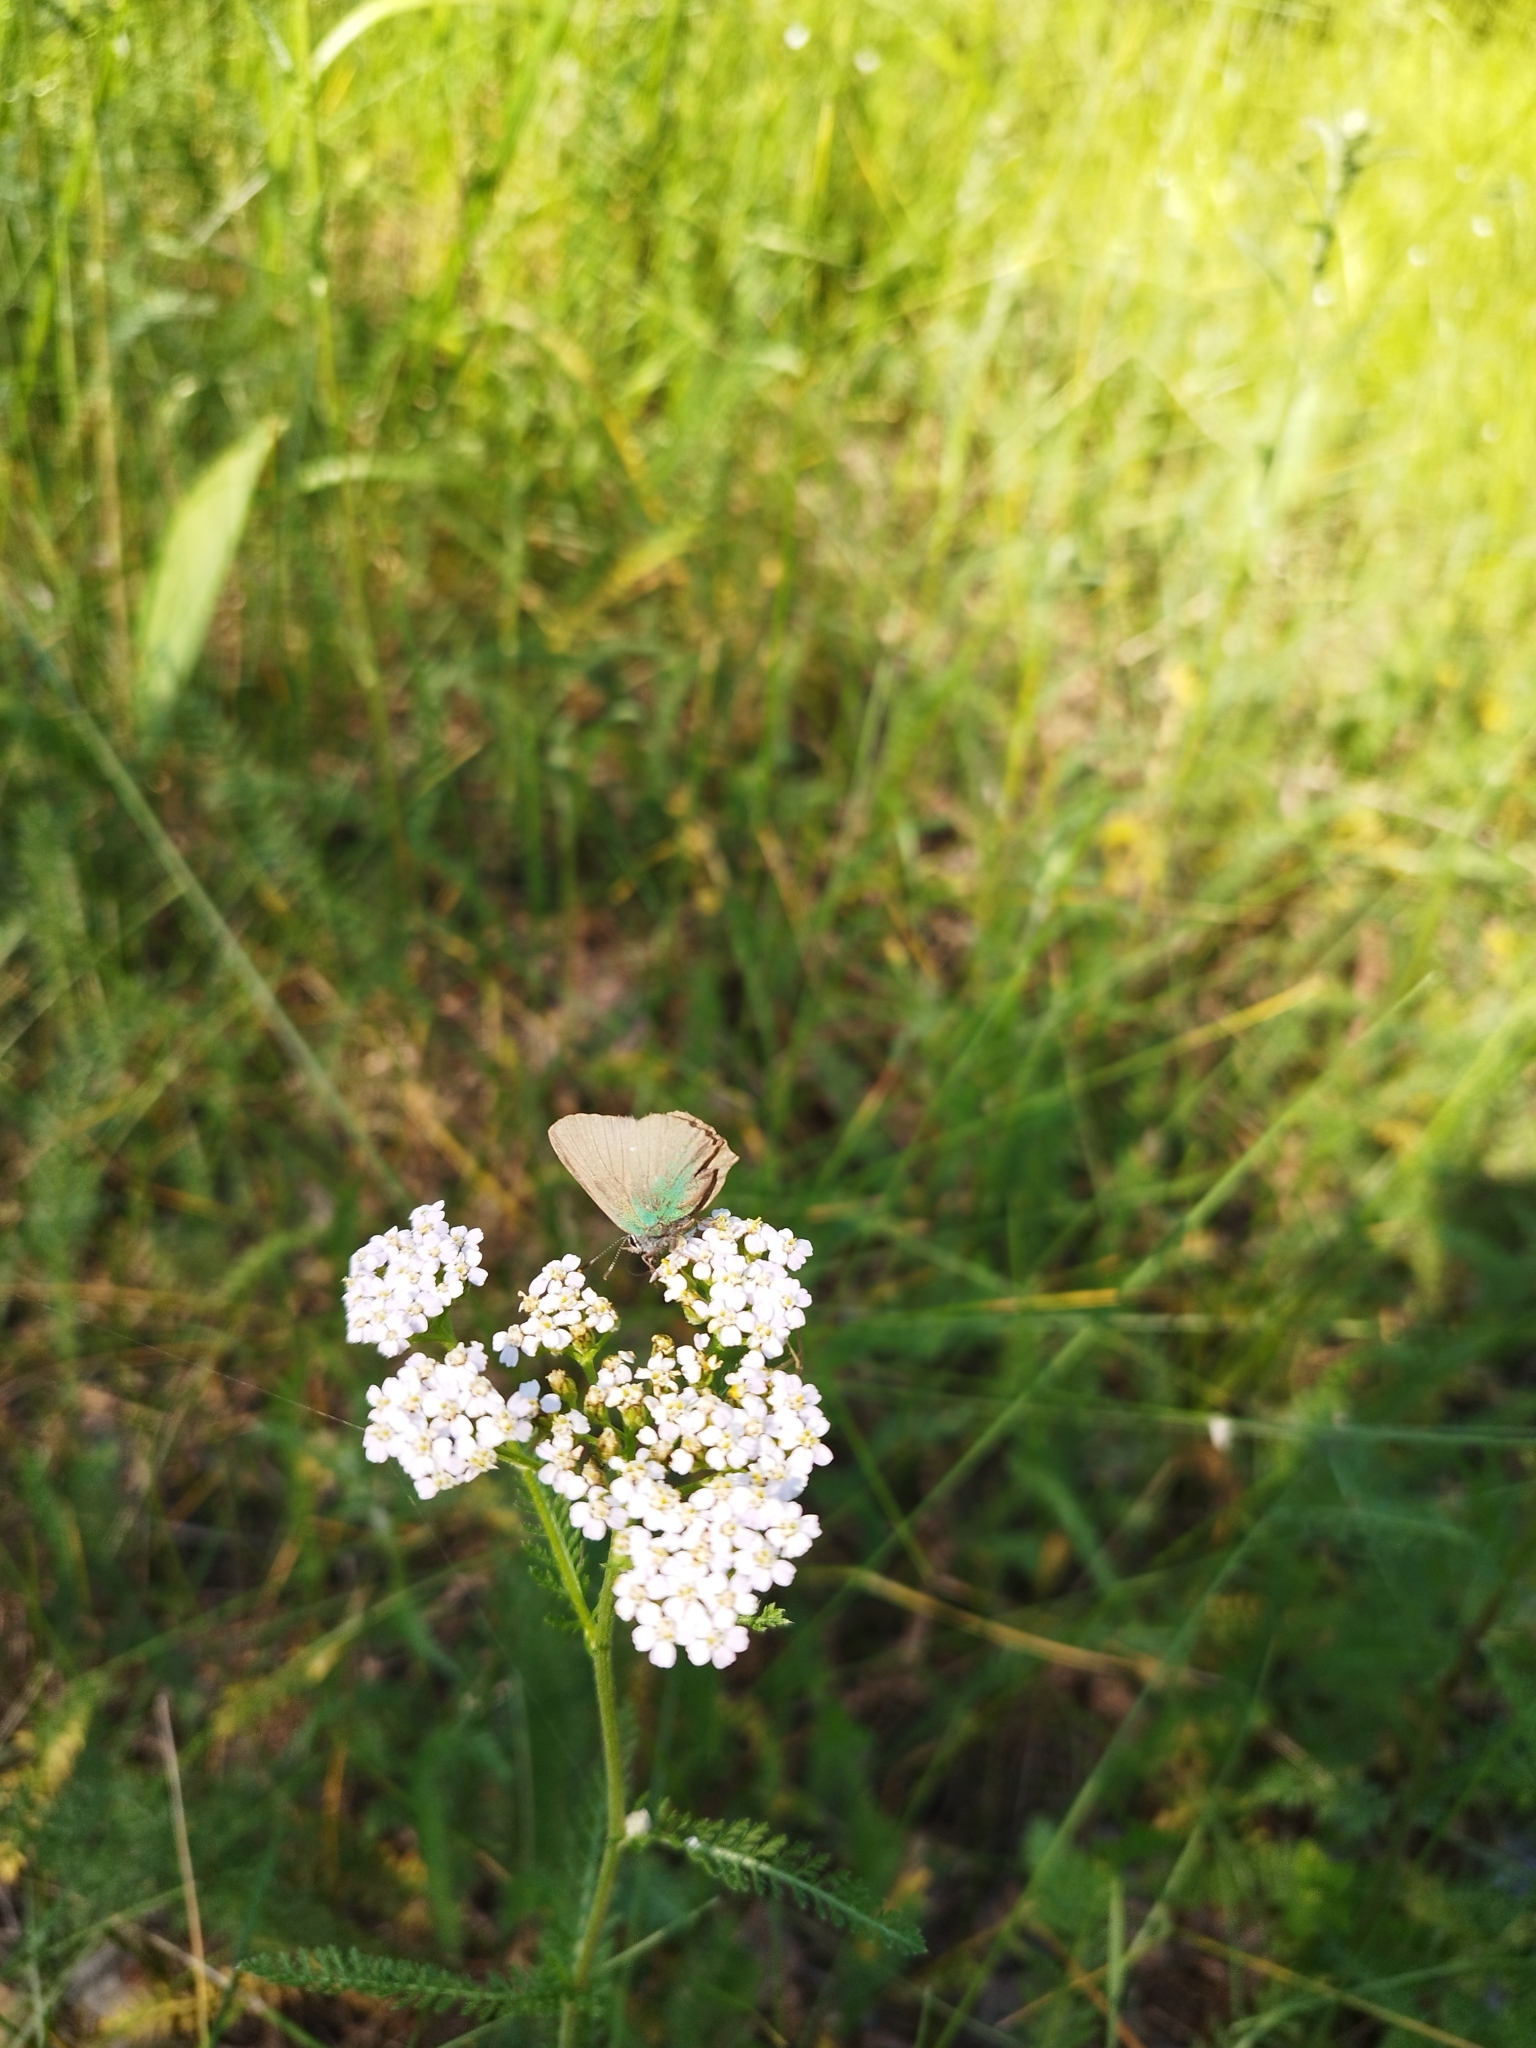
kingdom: Plantae
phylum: Tracheophyta
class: Magnoliopsida
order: Asterales
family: Asteraceae
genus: Achillea
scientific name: Achillea millefolium
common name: Yarrow
